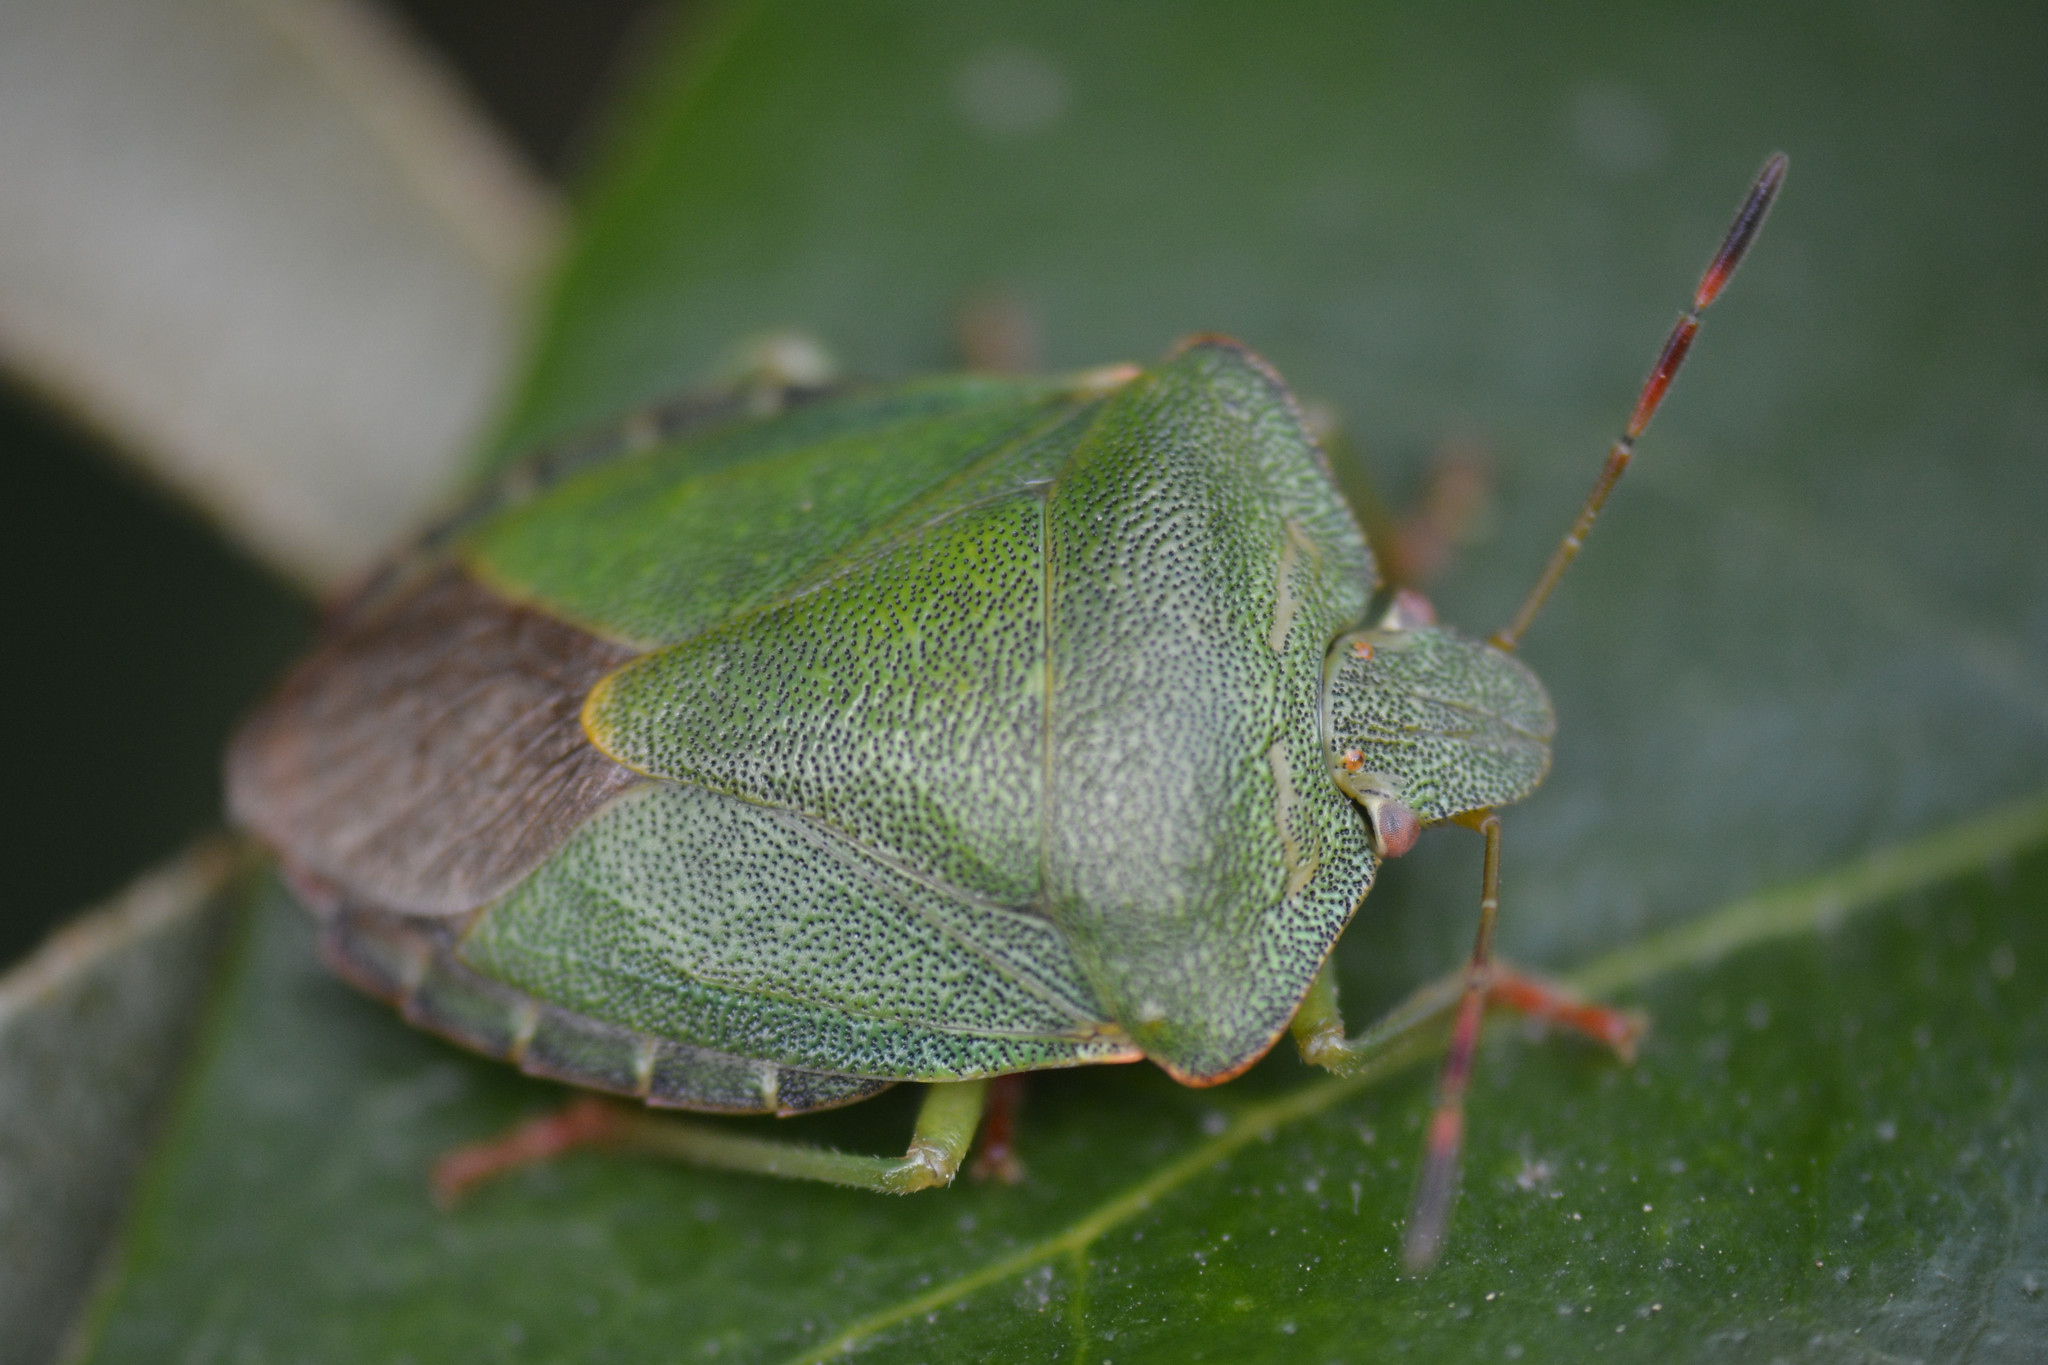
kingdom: Animalia
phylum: Arthropoda
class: Insecta
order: Hemiptera
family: Pentatomidae
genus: Palomena
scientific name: Palomena prasina
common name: Green shieldbug
